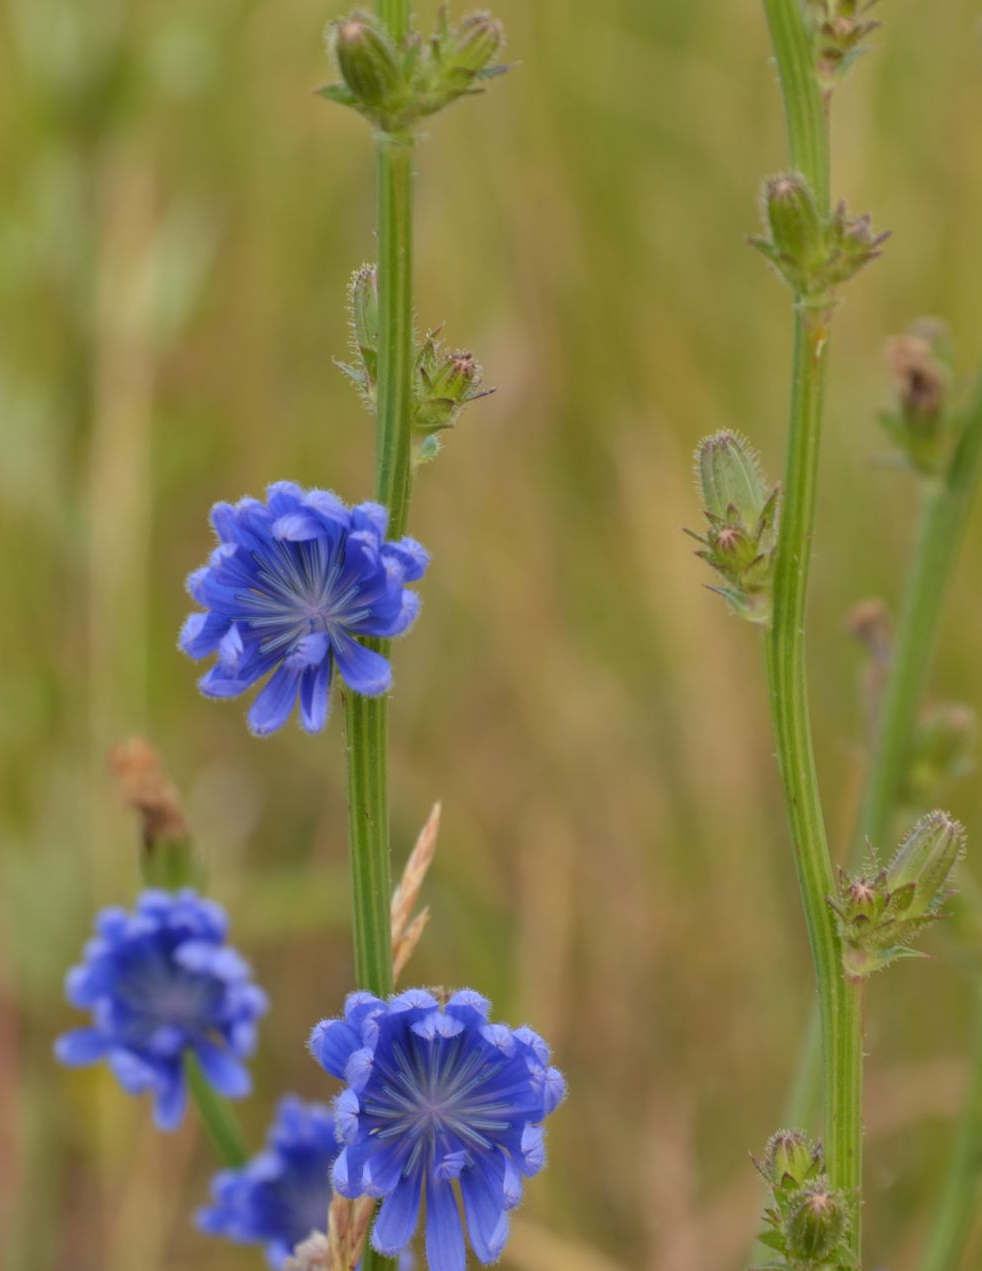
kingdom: Plantae
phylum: Tracheophyta
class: Magnoliopsida
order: Asterales
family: Asteraceae
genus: Cichorium
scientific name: Cichorium intybus
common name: Chicory
